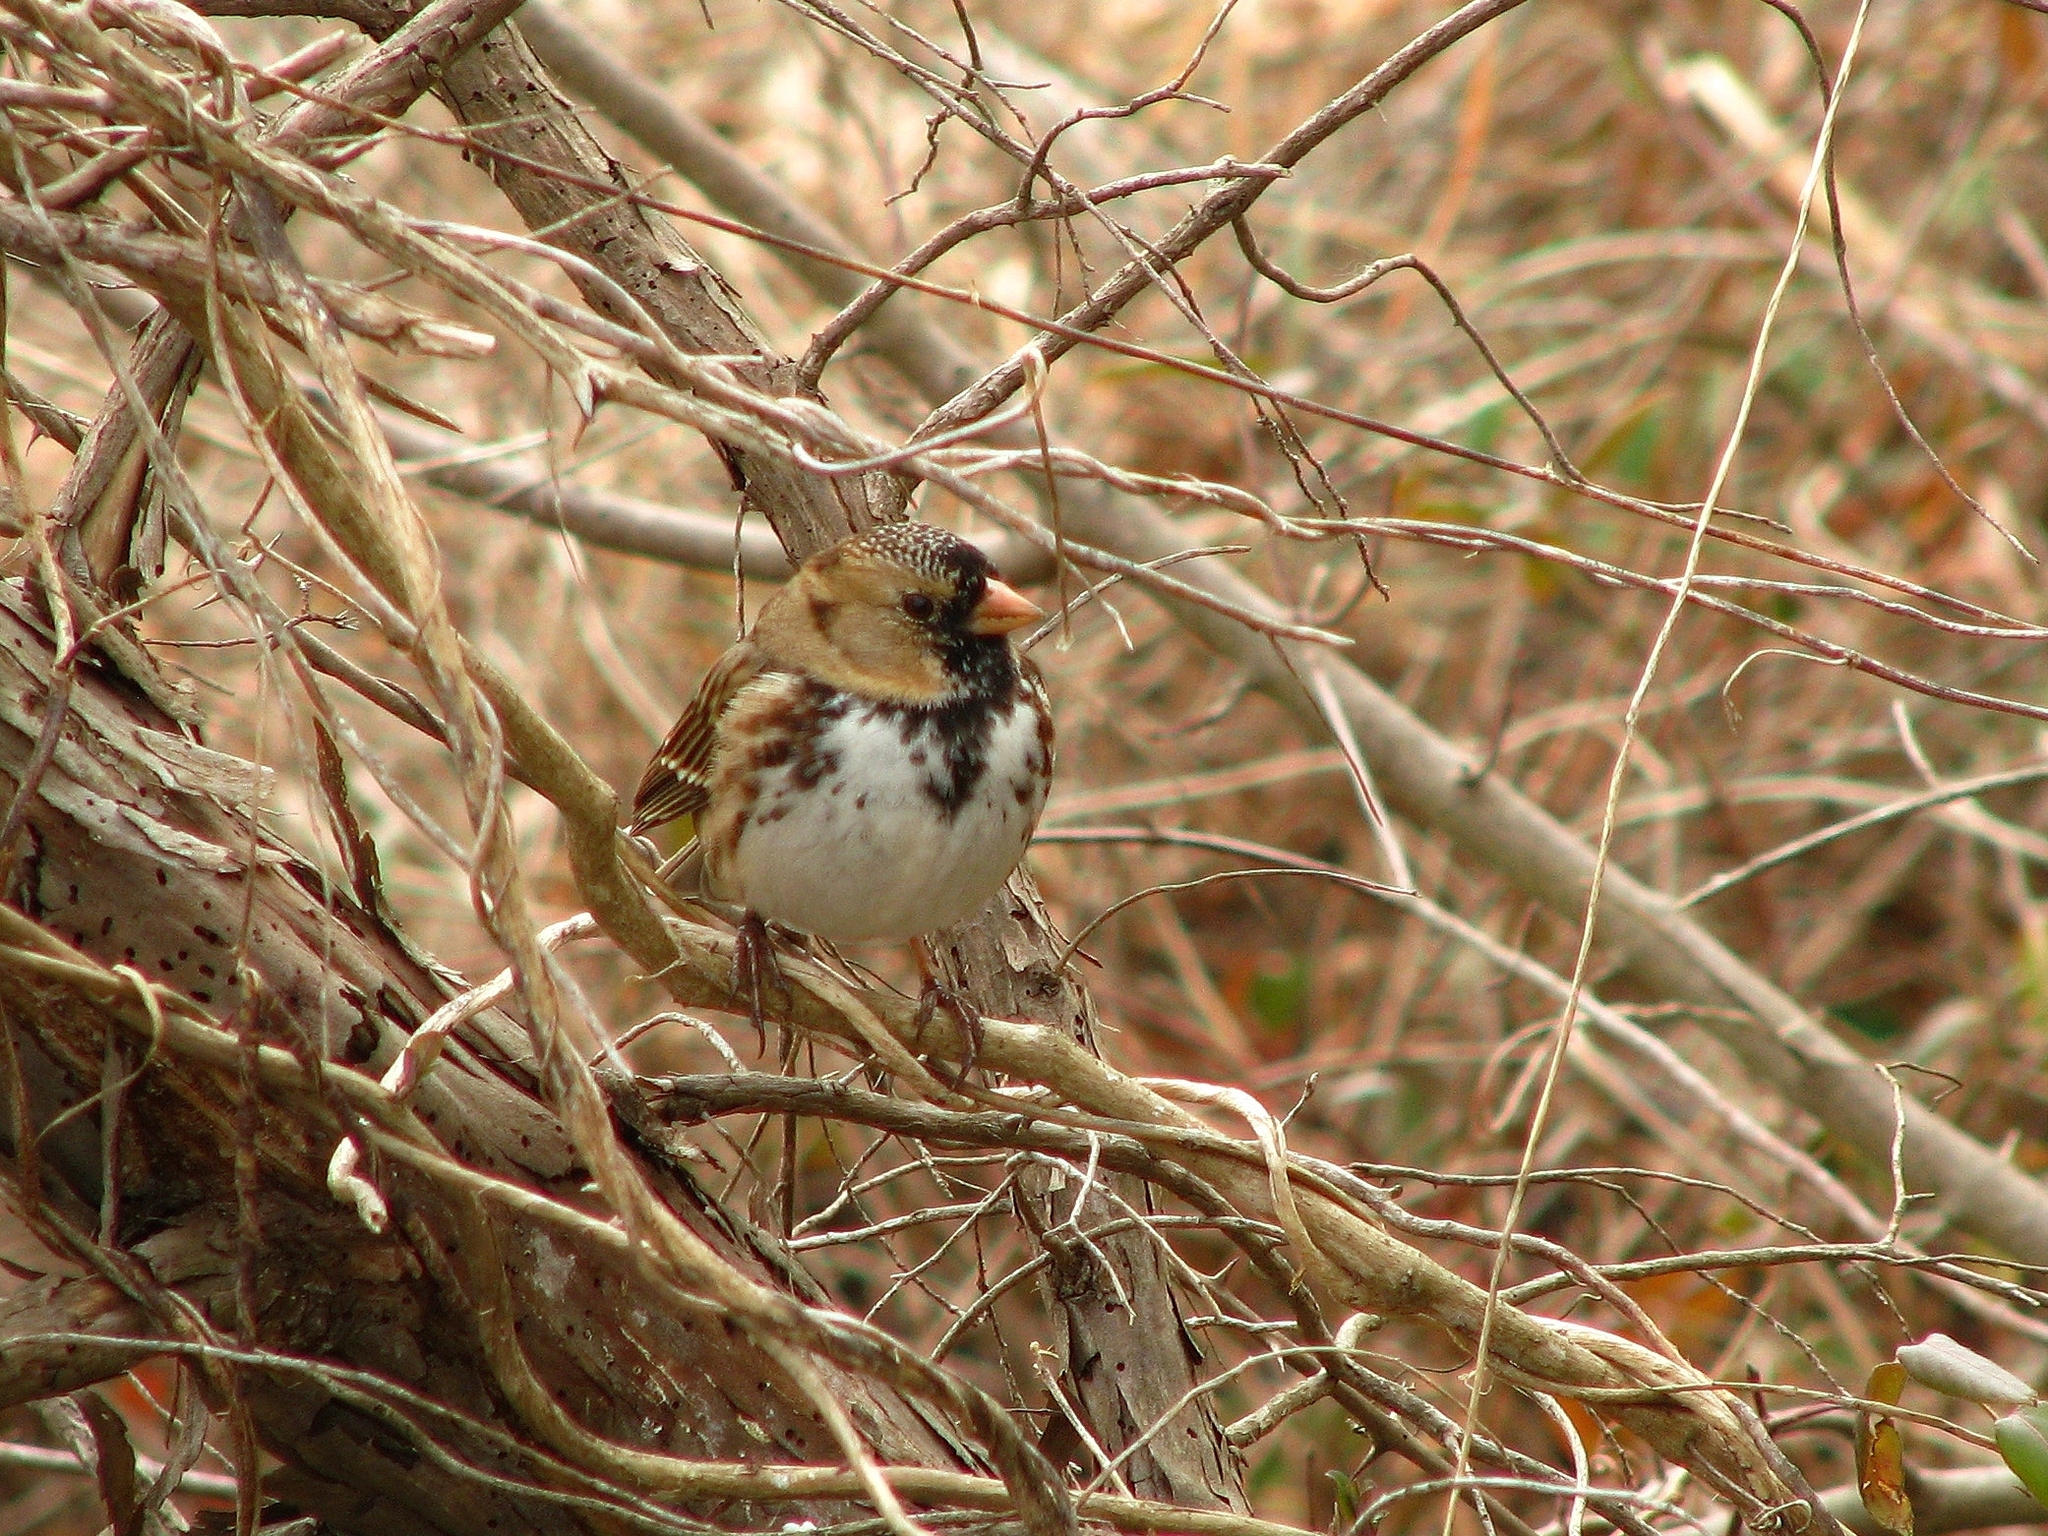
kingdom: Animalia
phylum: Chordata
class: Aves
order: Passeriformes
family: Passerellidae
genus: Zonotrichia
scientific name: Zonotrichia querula
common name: Harris's sparrow
